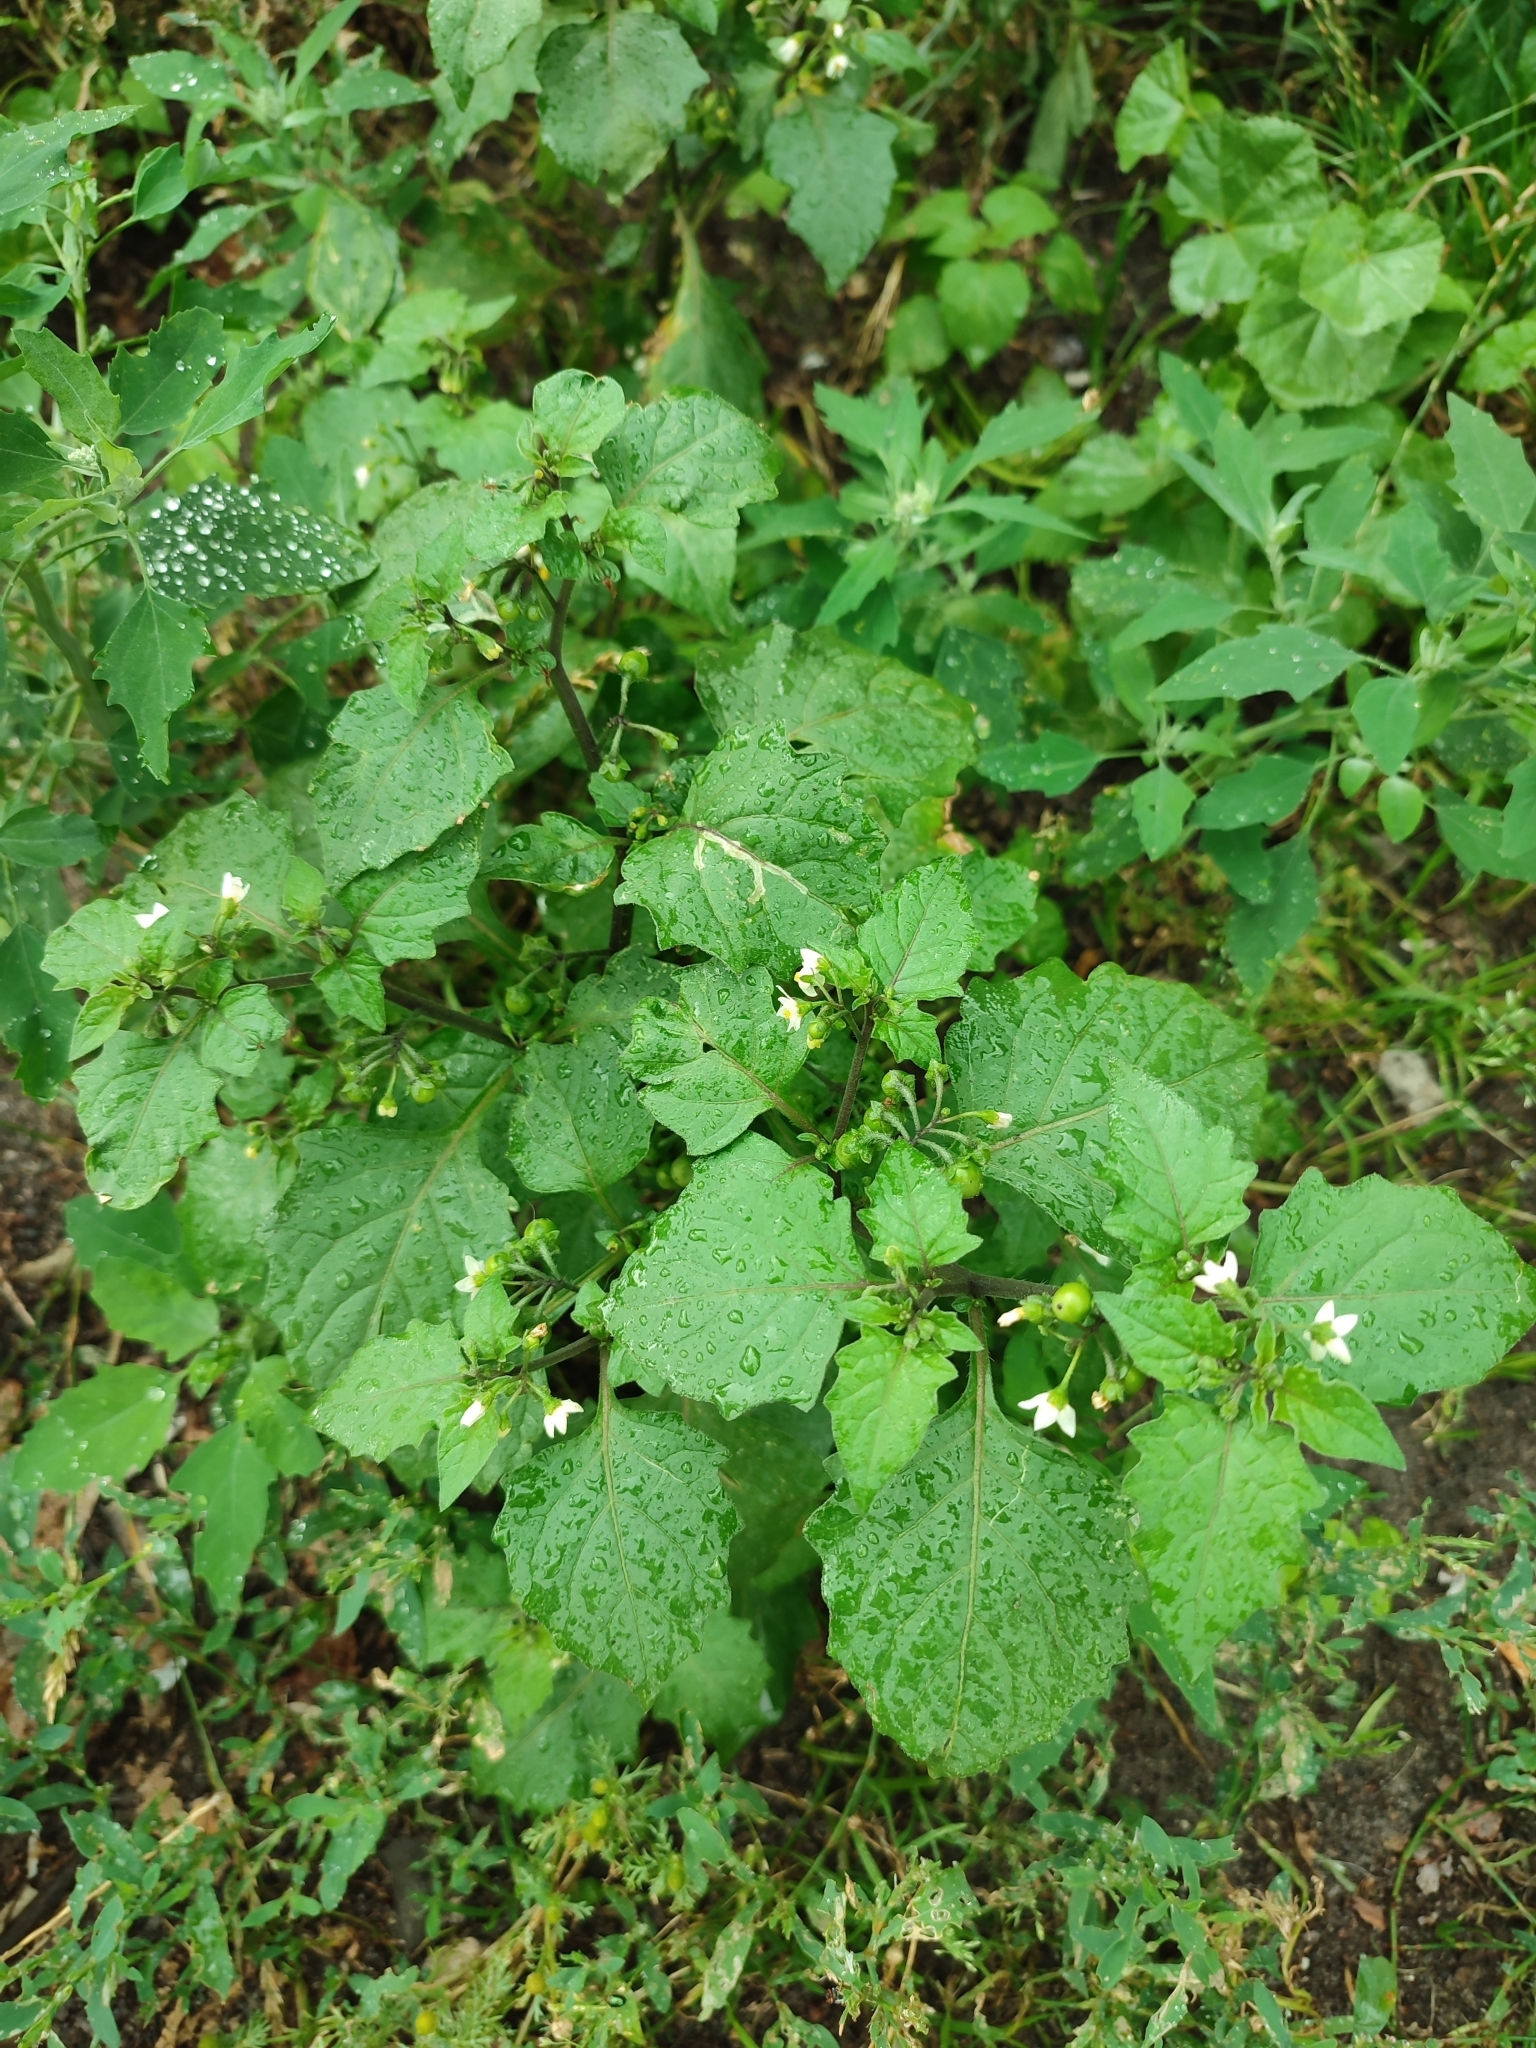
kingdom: Plantae
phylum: Tracheophyta
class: Magnoliopsida
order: Solanales
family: Solanaceae
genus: Solanum
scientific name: Solanum nigrum
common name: Black nightshade
